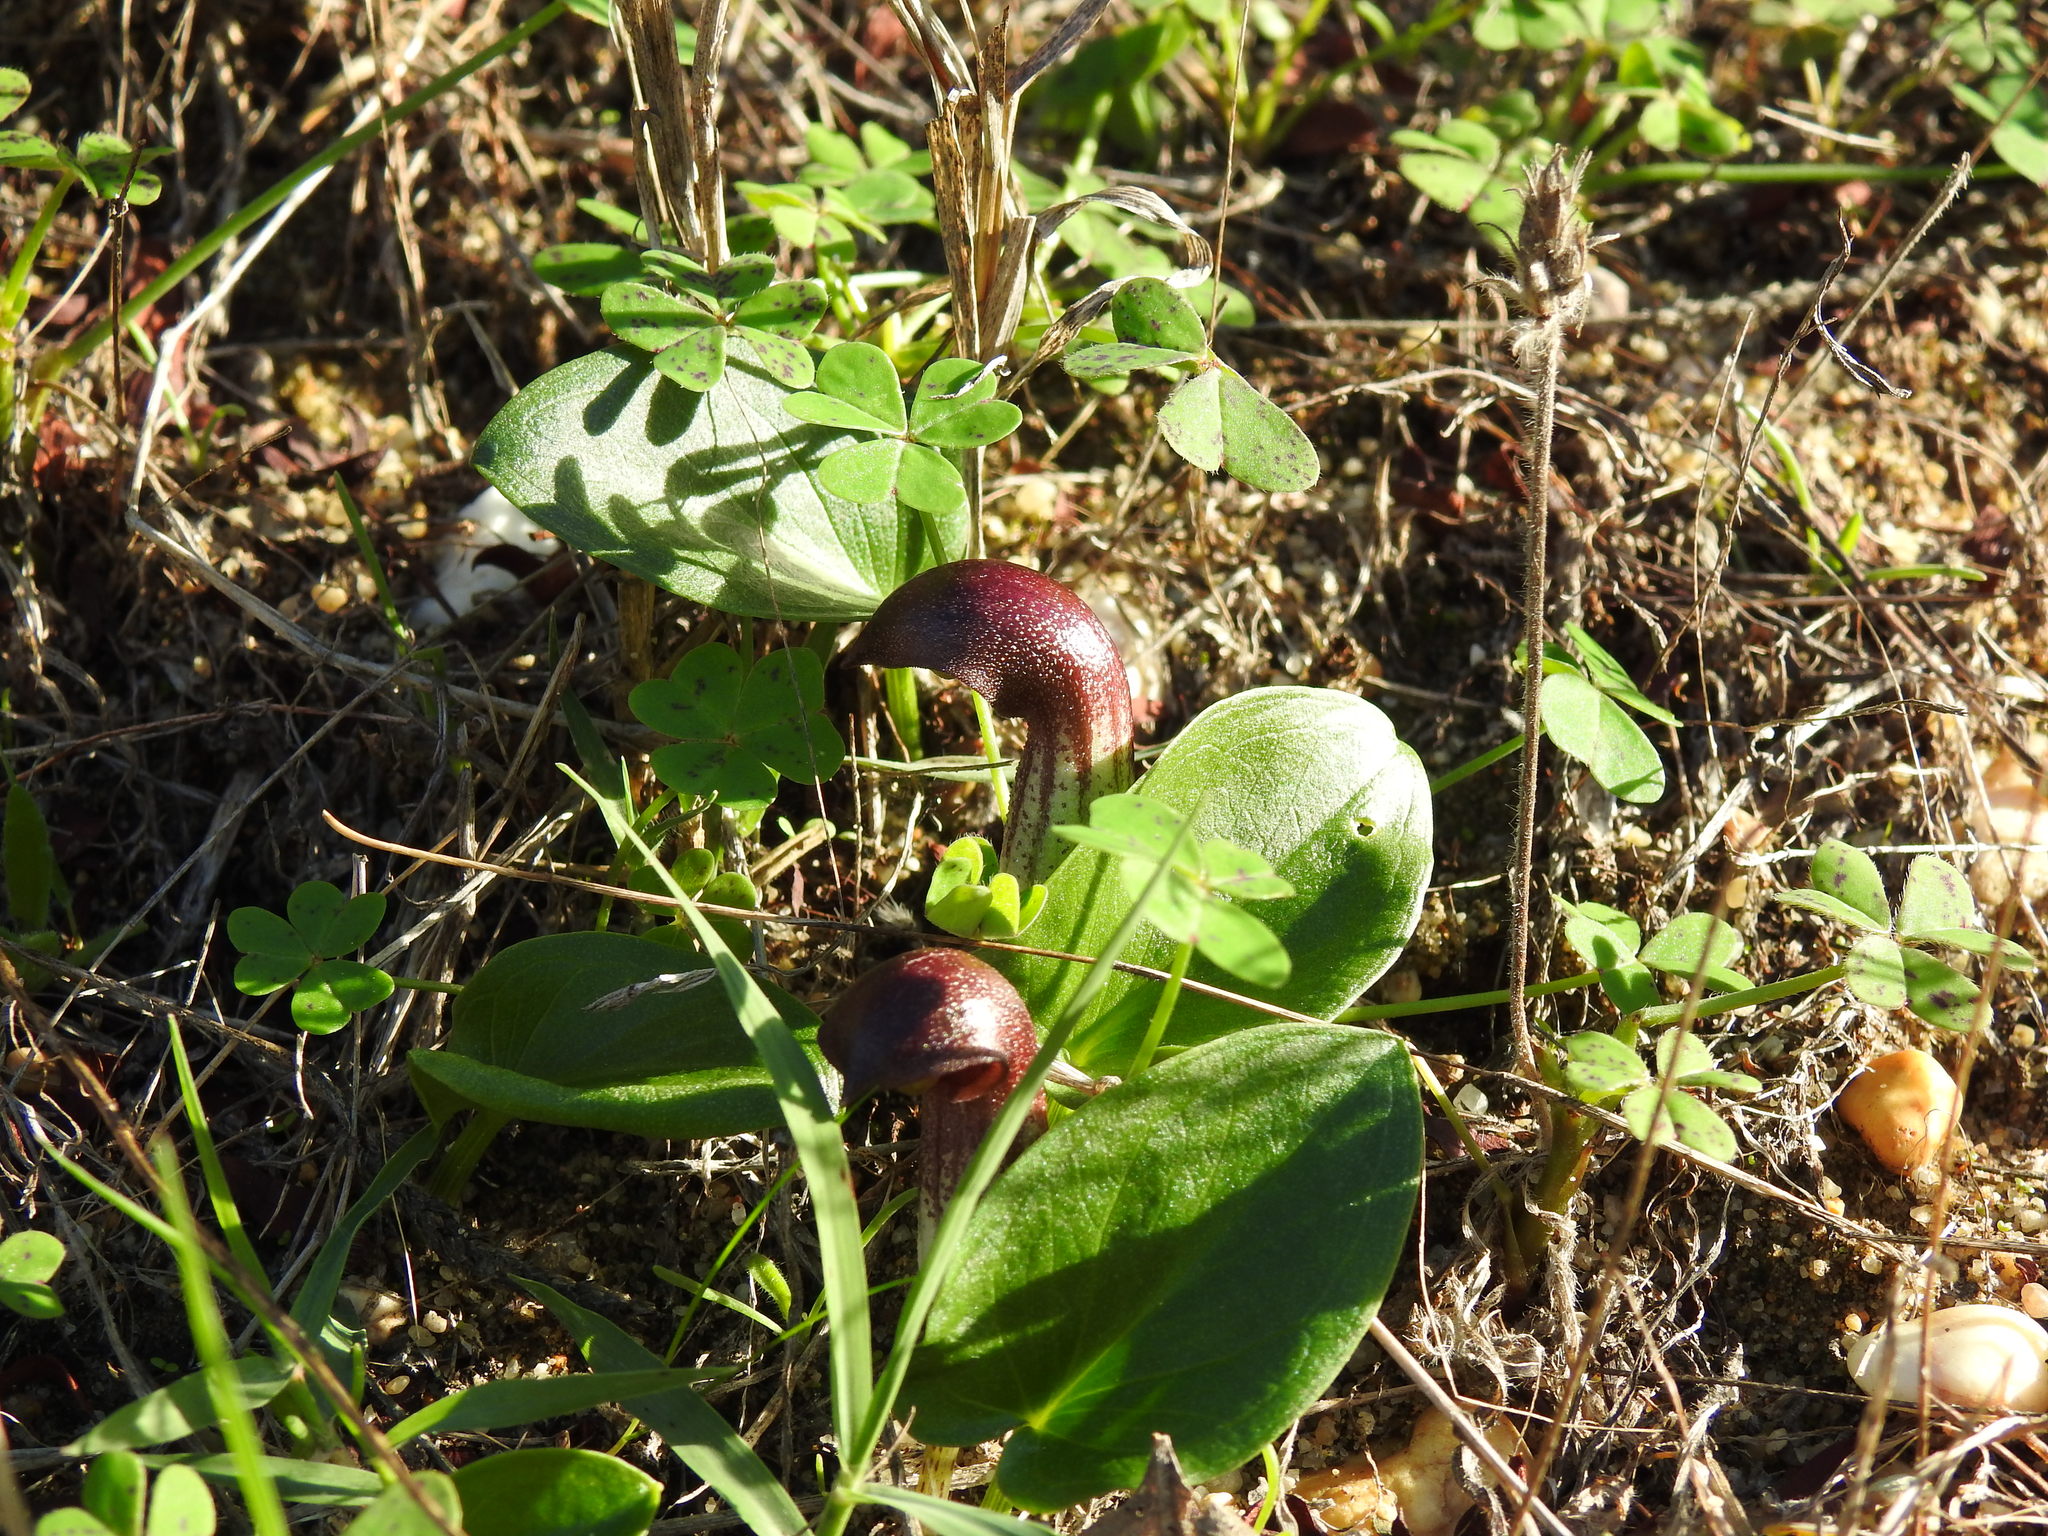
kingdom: Plantae
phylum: Tracheophyta
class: Liliopsida
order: Alismatales
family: Araceae
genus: Arisarum
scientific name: Arisarum simorrhinum
